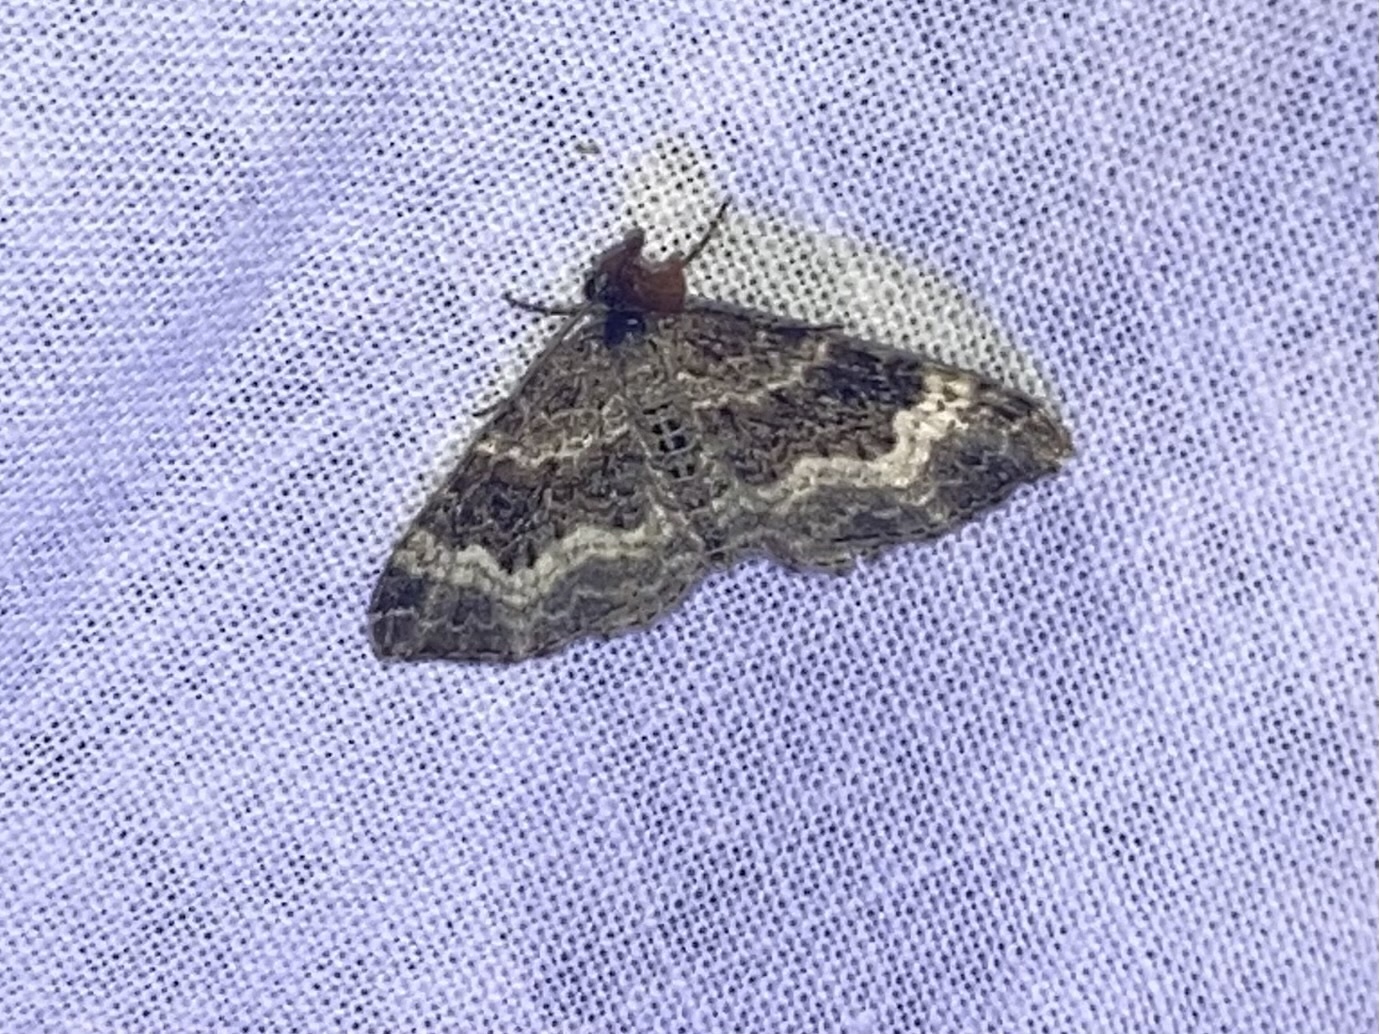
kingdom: Animalia
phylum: Arthropoda
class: Insecta
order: Lepidoptera
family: Geometridae
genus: Epirrhoe
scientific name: Epirrhoe alternata
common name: Common carpet
